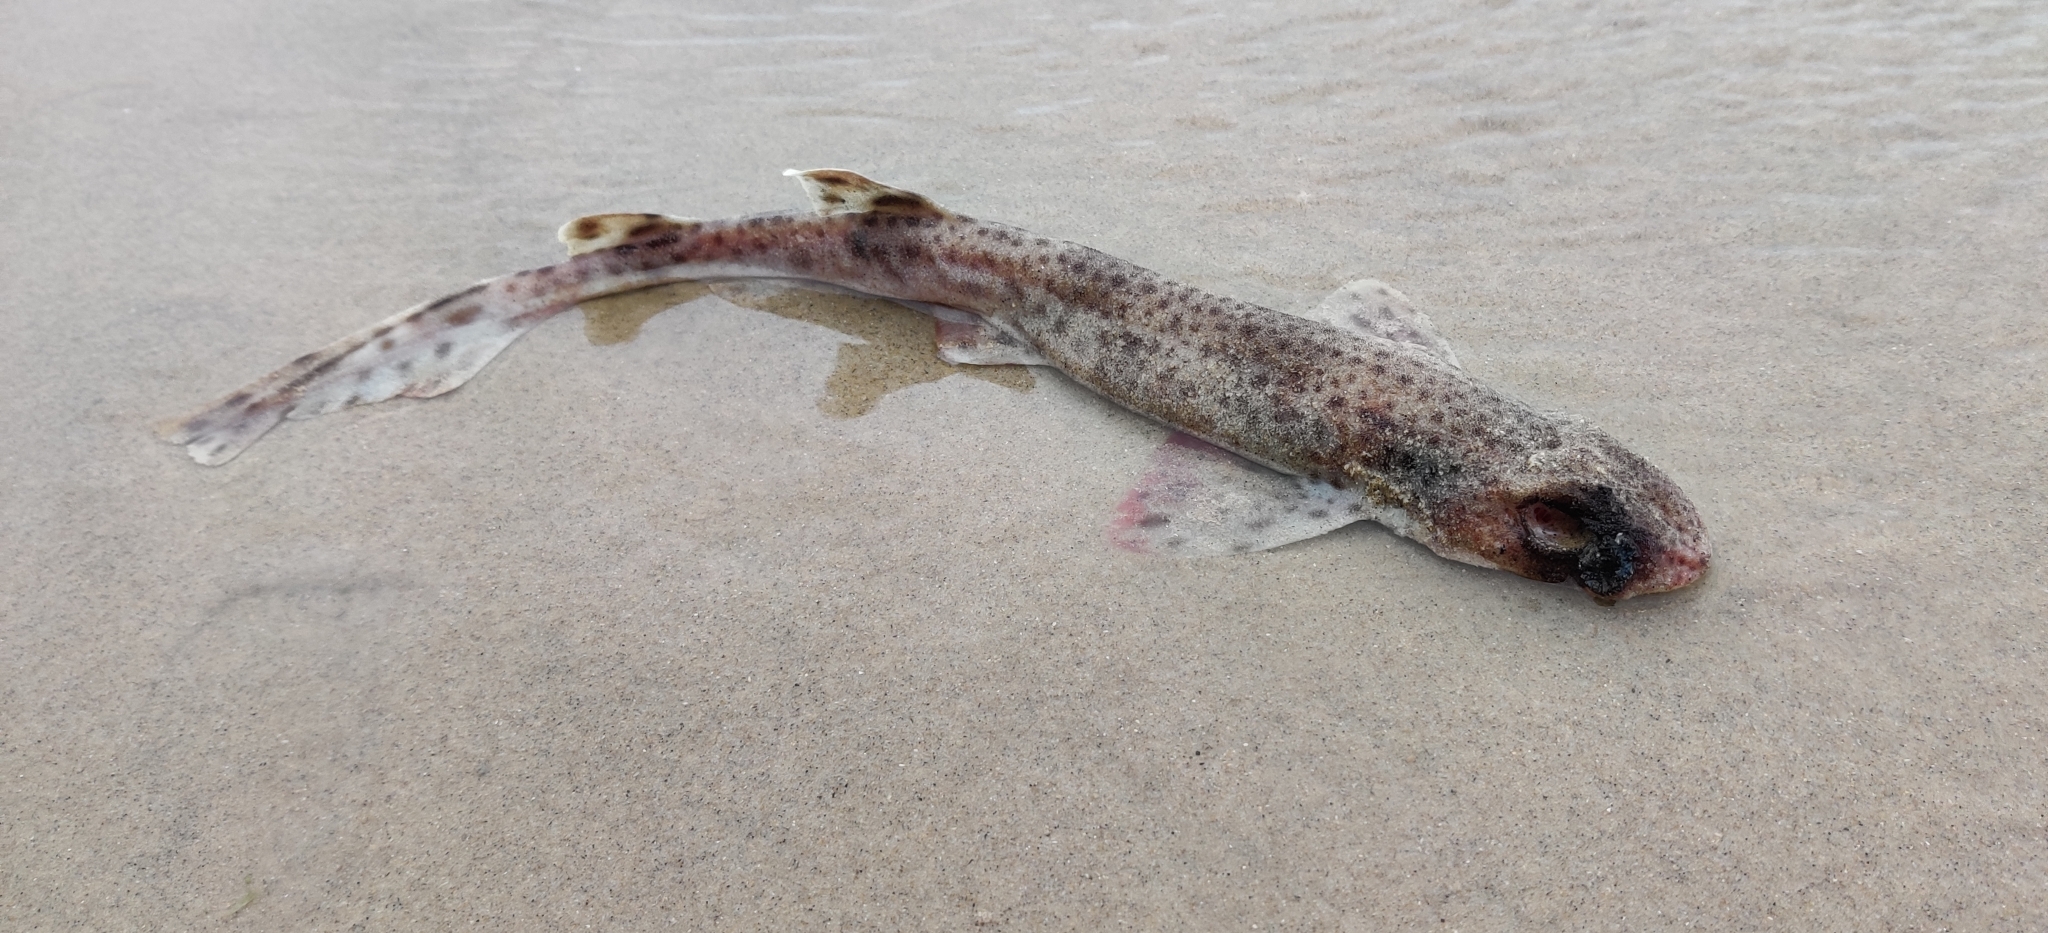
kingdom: Animalia
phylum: Chordata
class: Elasmobranchii
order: Carcharhiniformes
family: Scyliorhinidae
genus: Scyliorhinus
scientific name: Scyliorhinus canicula
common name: Lesser spotted dogfish
